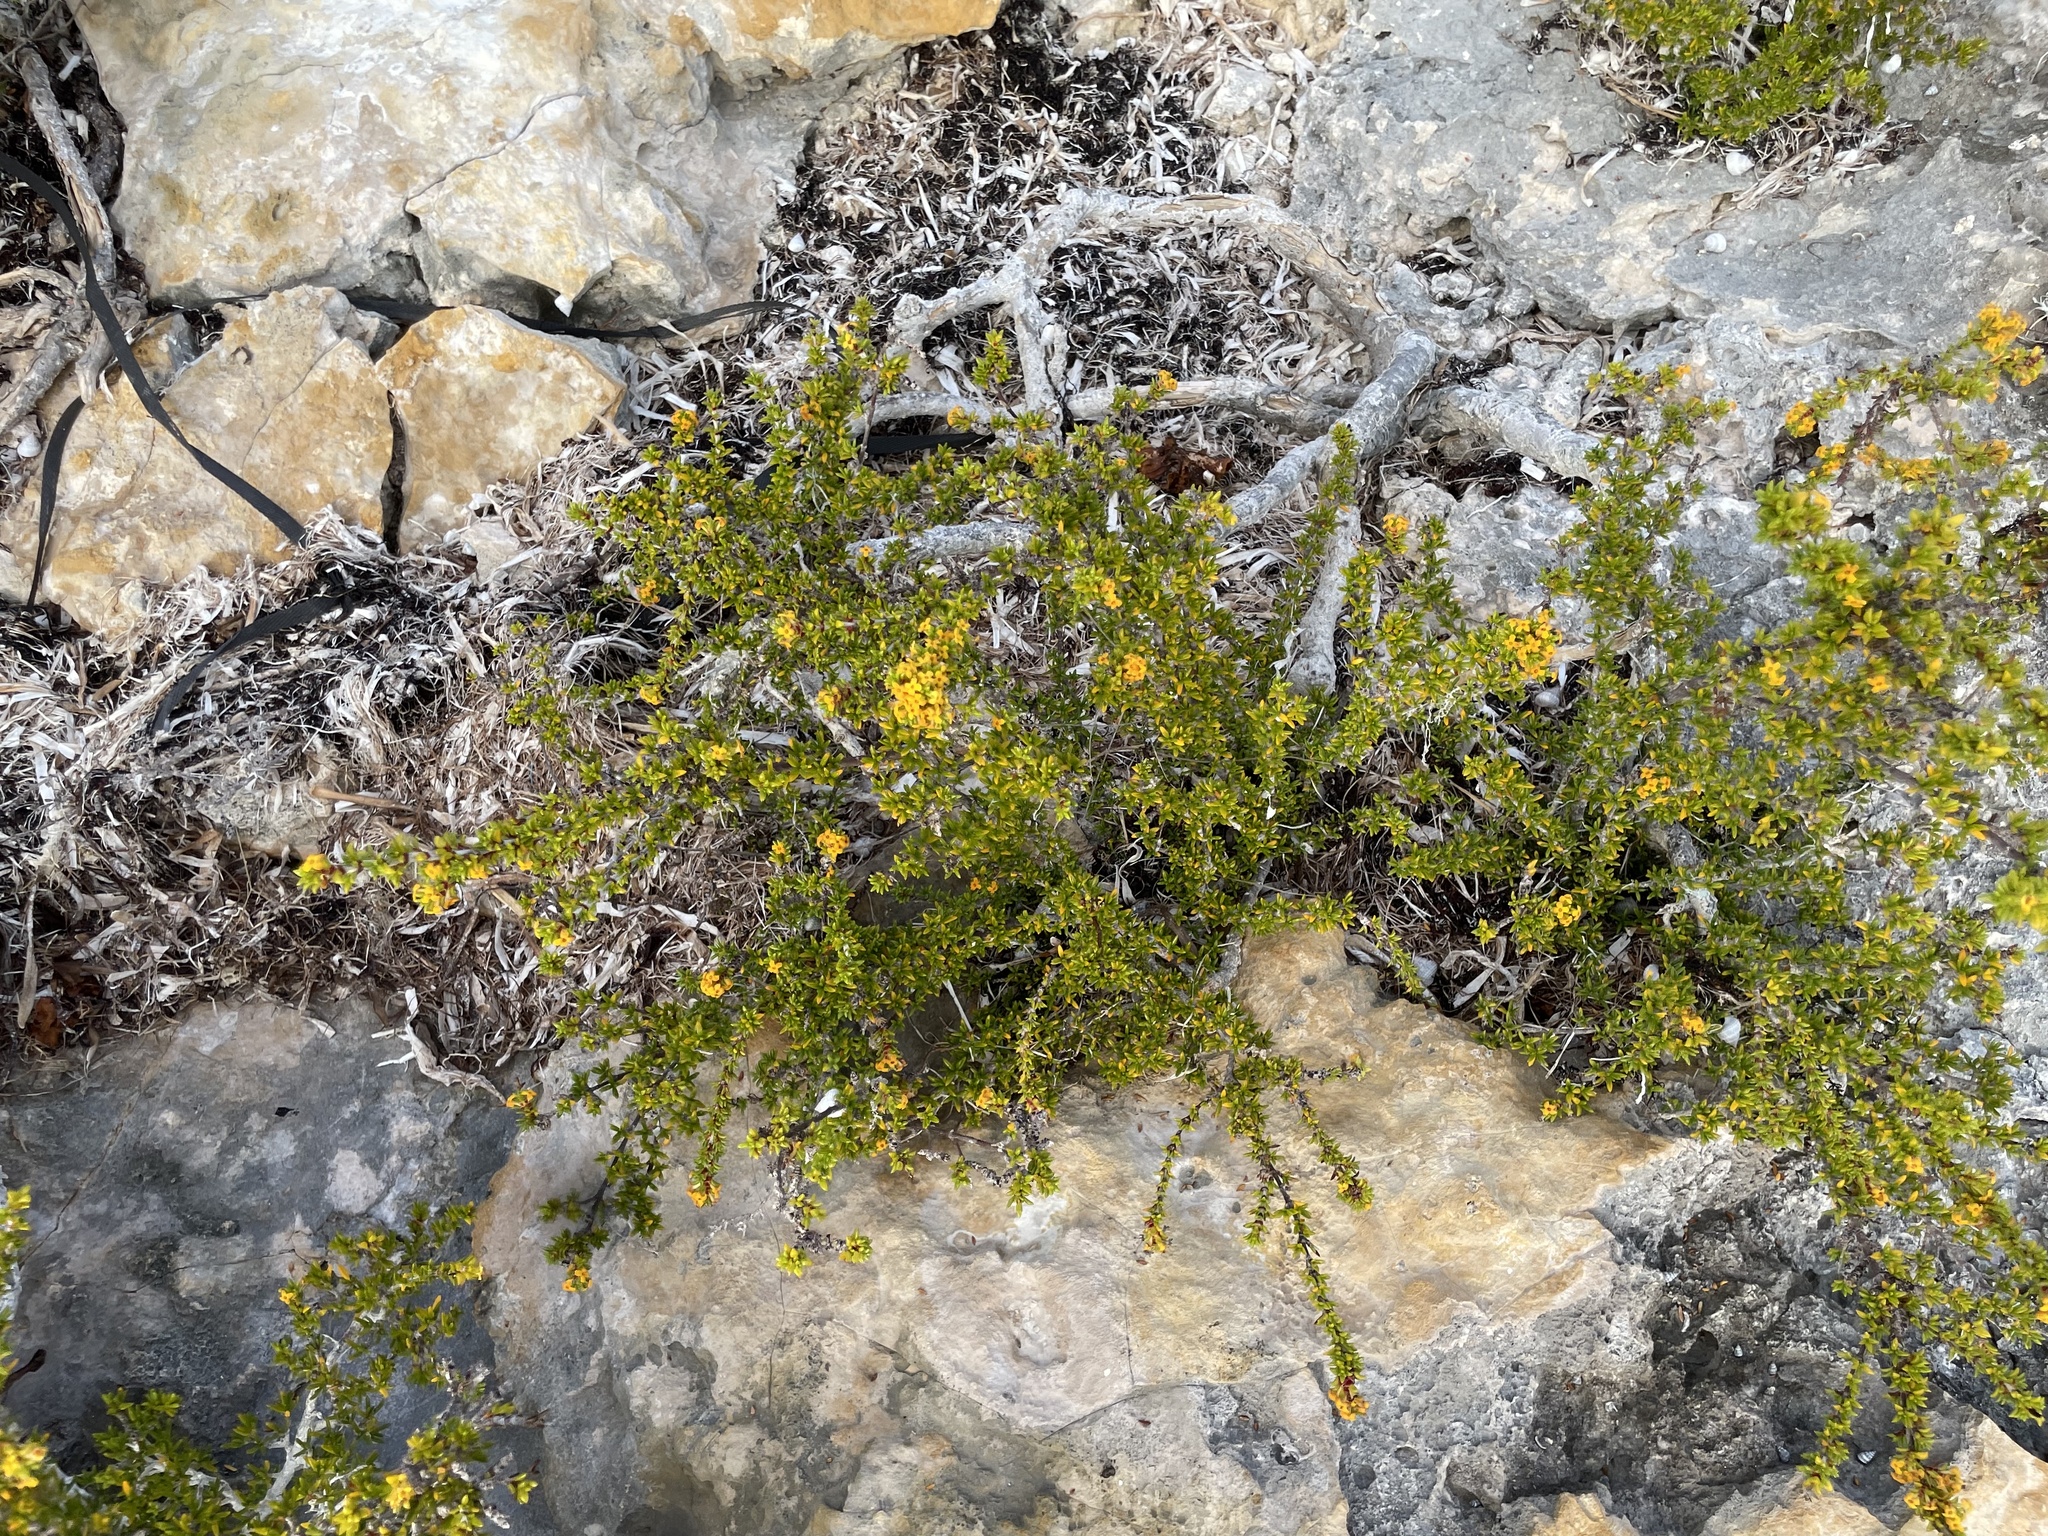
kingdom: Plantae
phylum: Tracheophyta
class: Magnoliopsida
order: Gentianales
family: Rubiaceae
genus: Rachicallis
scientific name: Rachicallis americana
